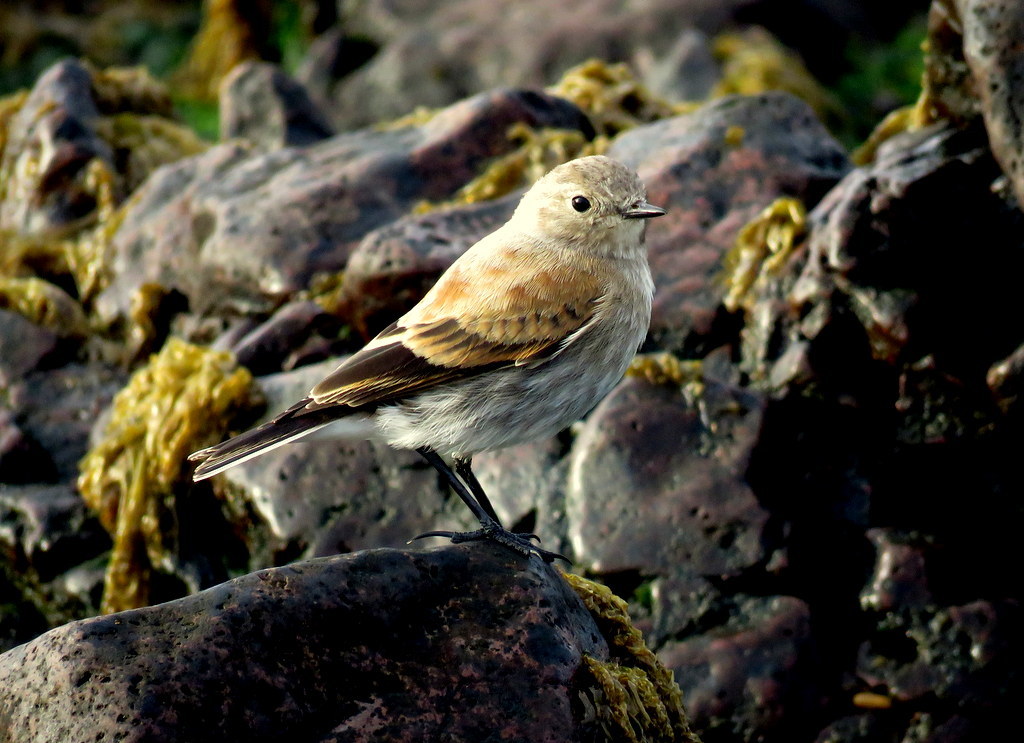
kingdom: Animalia
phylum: Chordata
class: Aves
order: Passeriformes
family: Tyrannidae
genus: Lessonia
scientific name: Lessonia rufa
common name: Austral negrito
